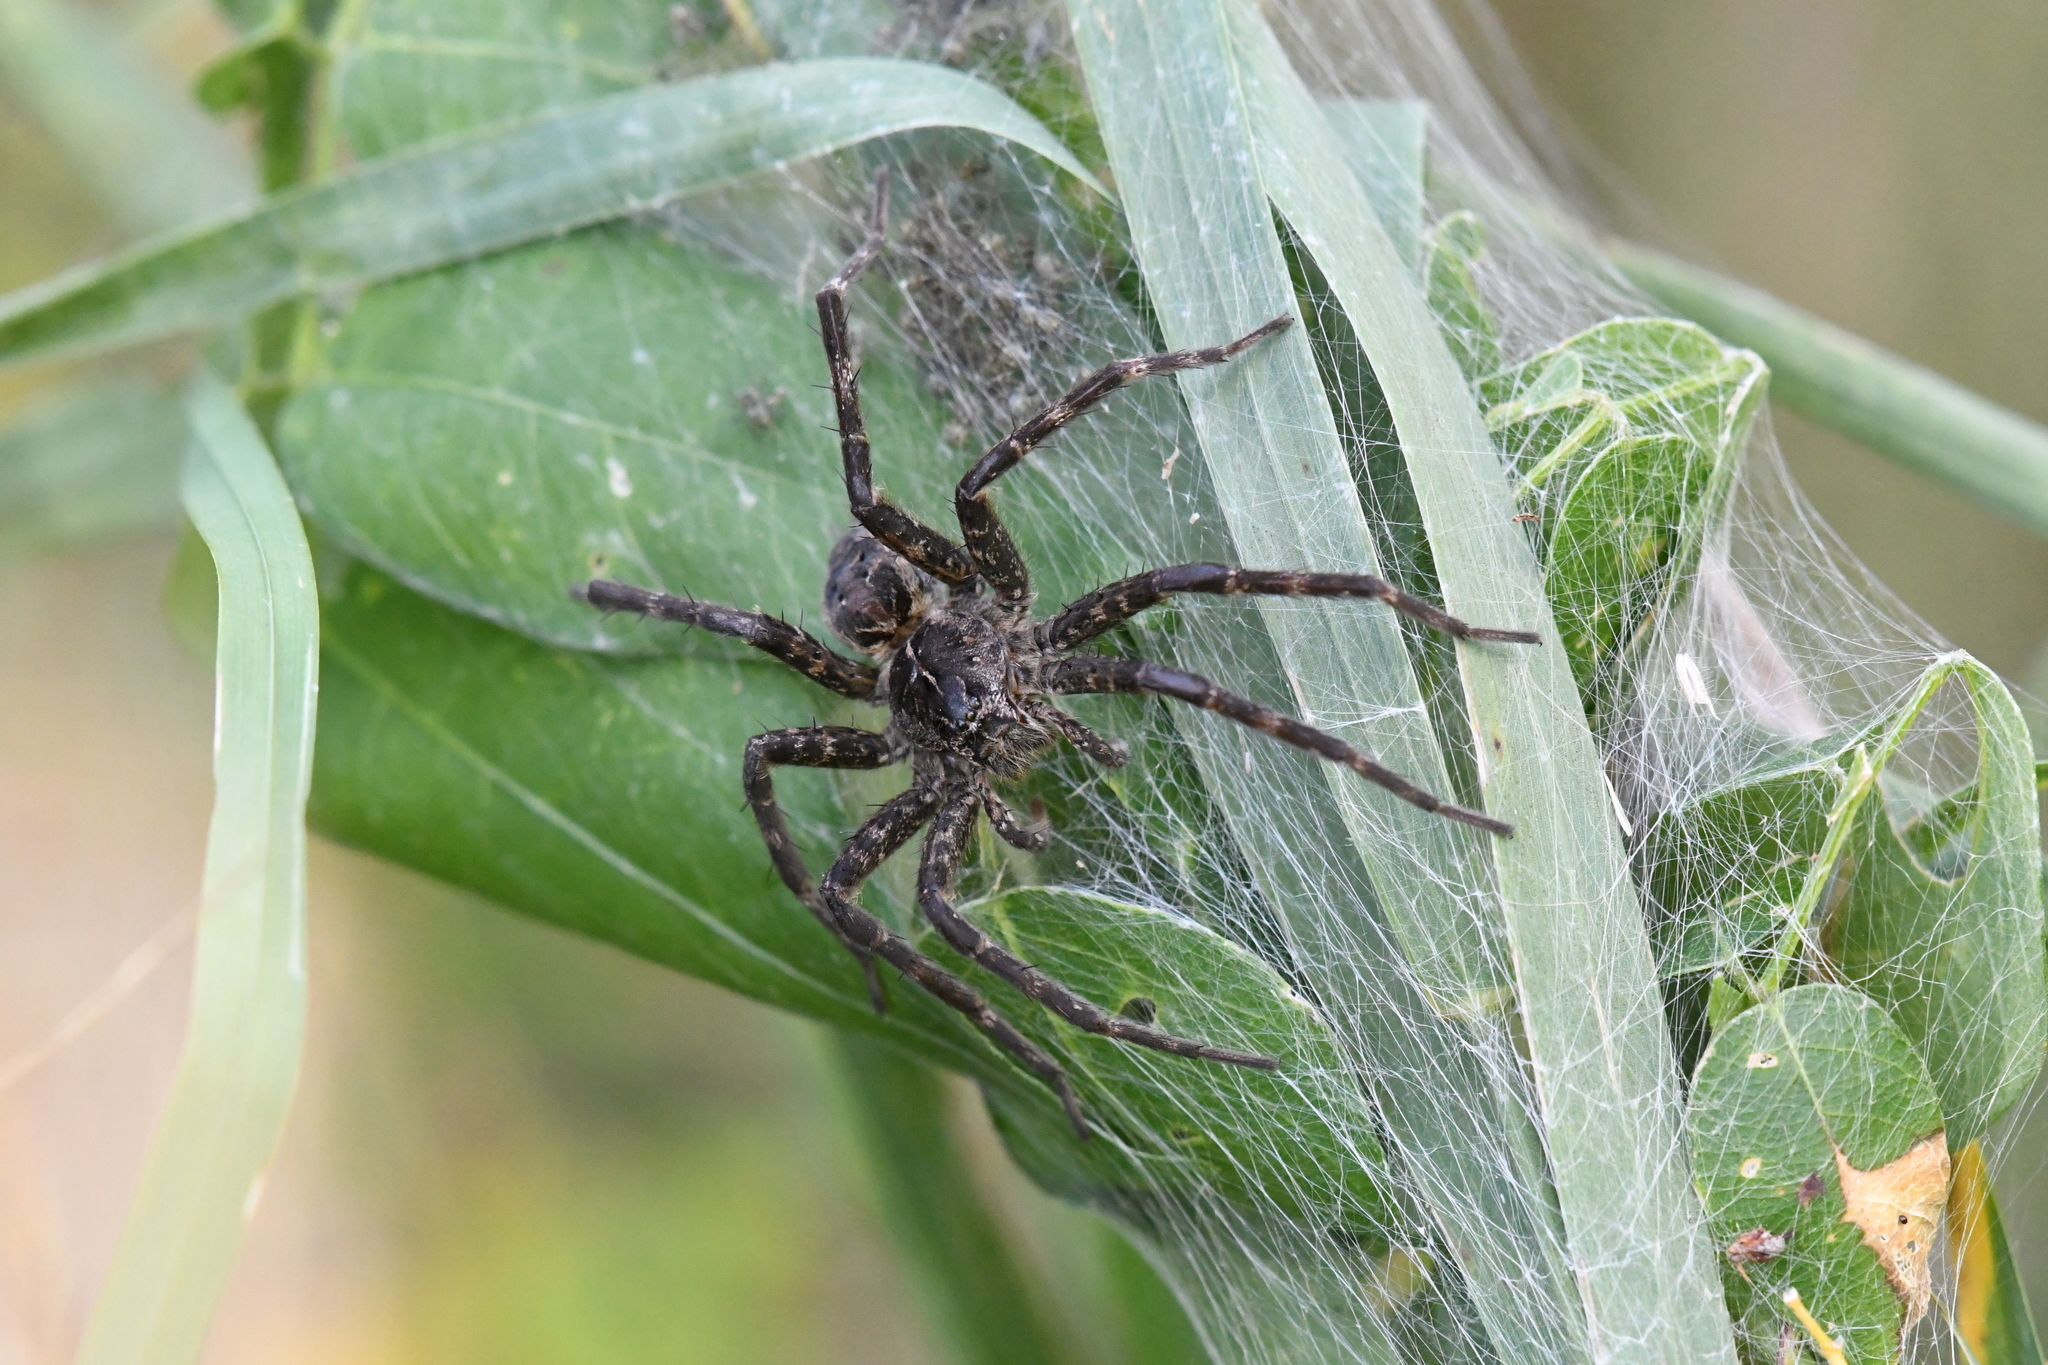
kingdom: Animalia
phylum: Arthropoda
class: Arachnida
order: Araneae
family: Pisauridae
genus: Dolomedes
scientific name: Dolomedes scriptus
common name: Striped fishing spider
